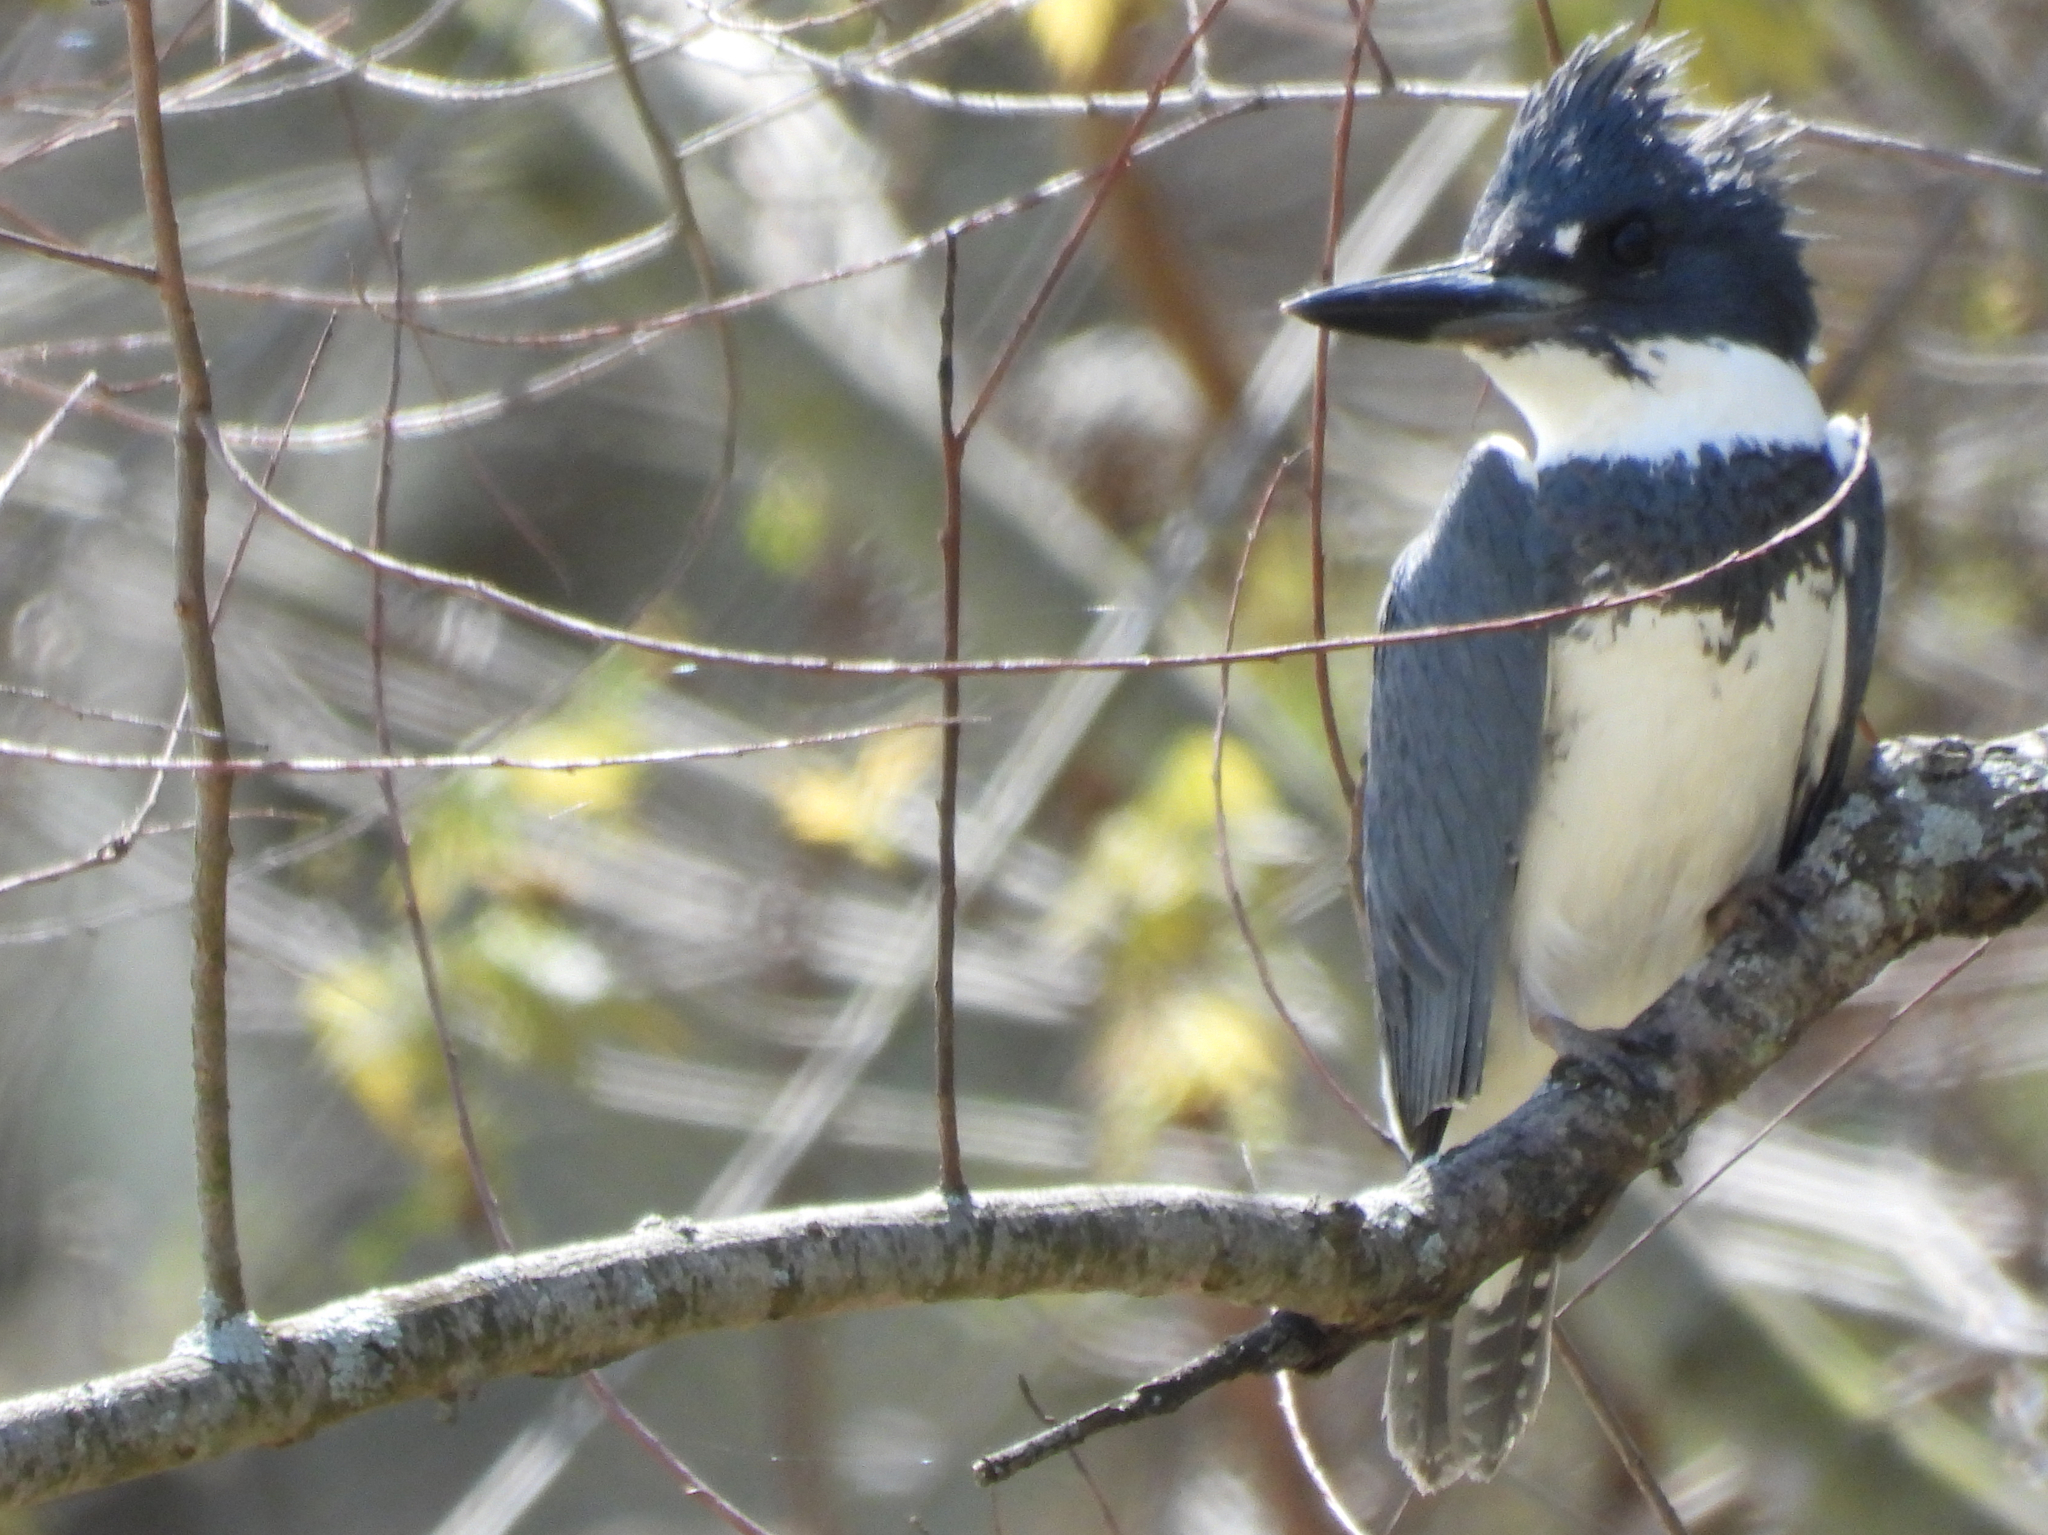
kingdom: Animalia
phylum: Chordata
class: Aves
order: Coraciiformes
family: Alcedinidae
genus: Megaceryle
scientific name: Megaceryle alcyon
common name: Belted kingfisher
